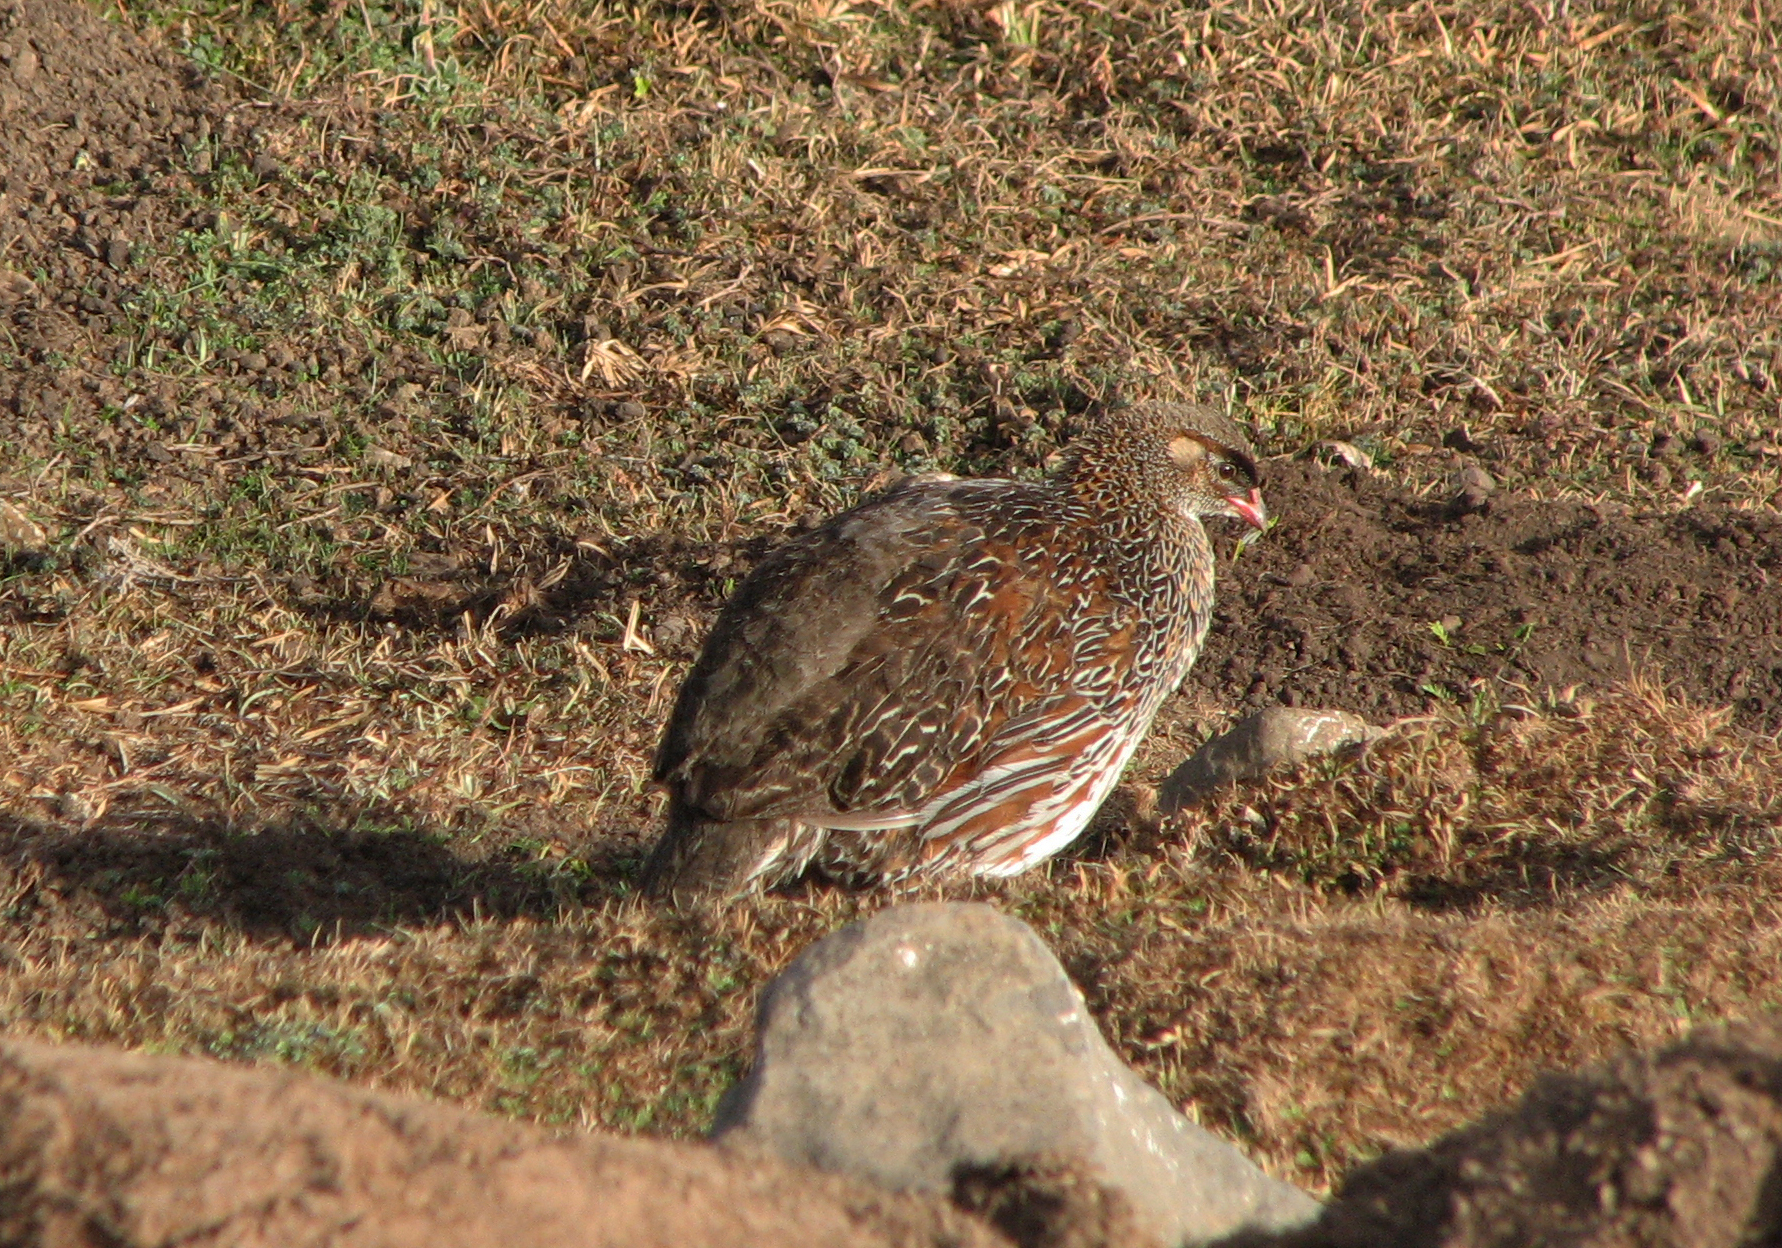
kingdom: Animalia
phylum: Chordata
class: Aves
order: Galliformes
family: Phasianidae
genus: Pternistis
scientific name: Pternistis castaneicollis
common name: Chestnut-naped francolin
